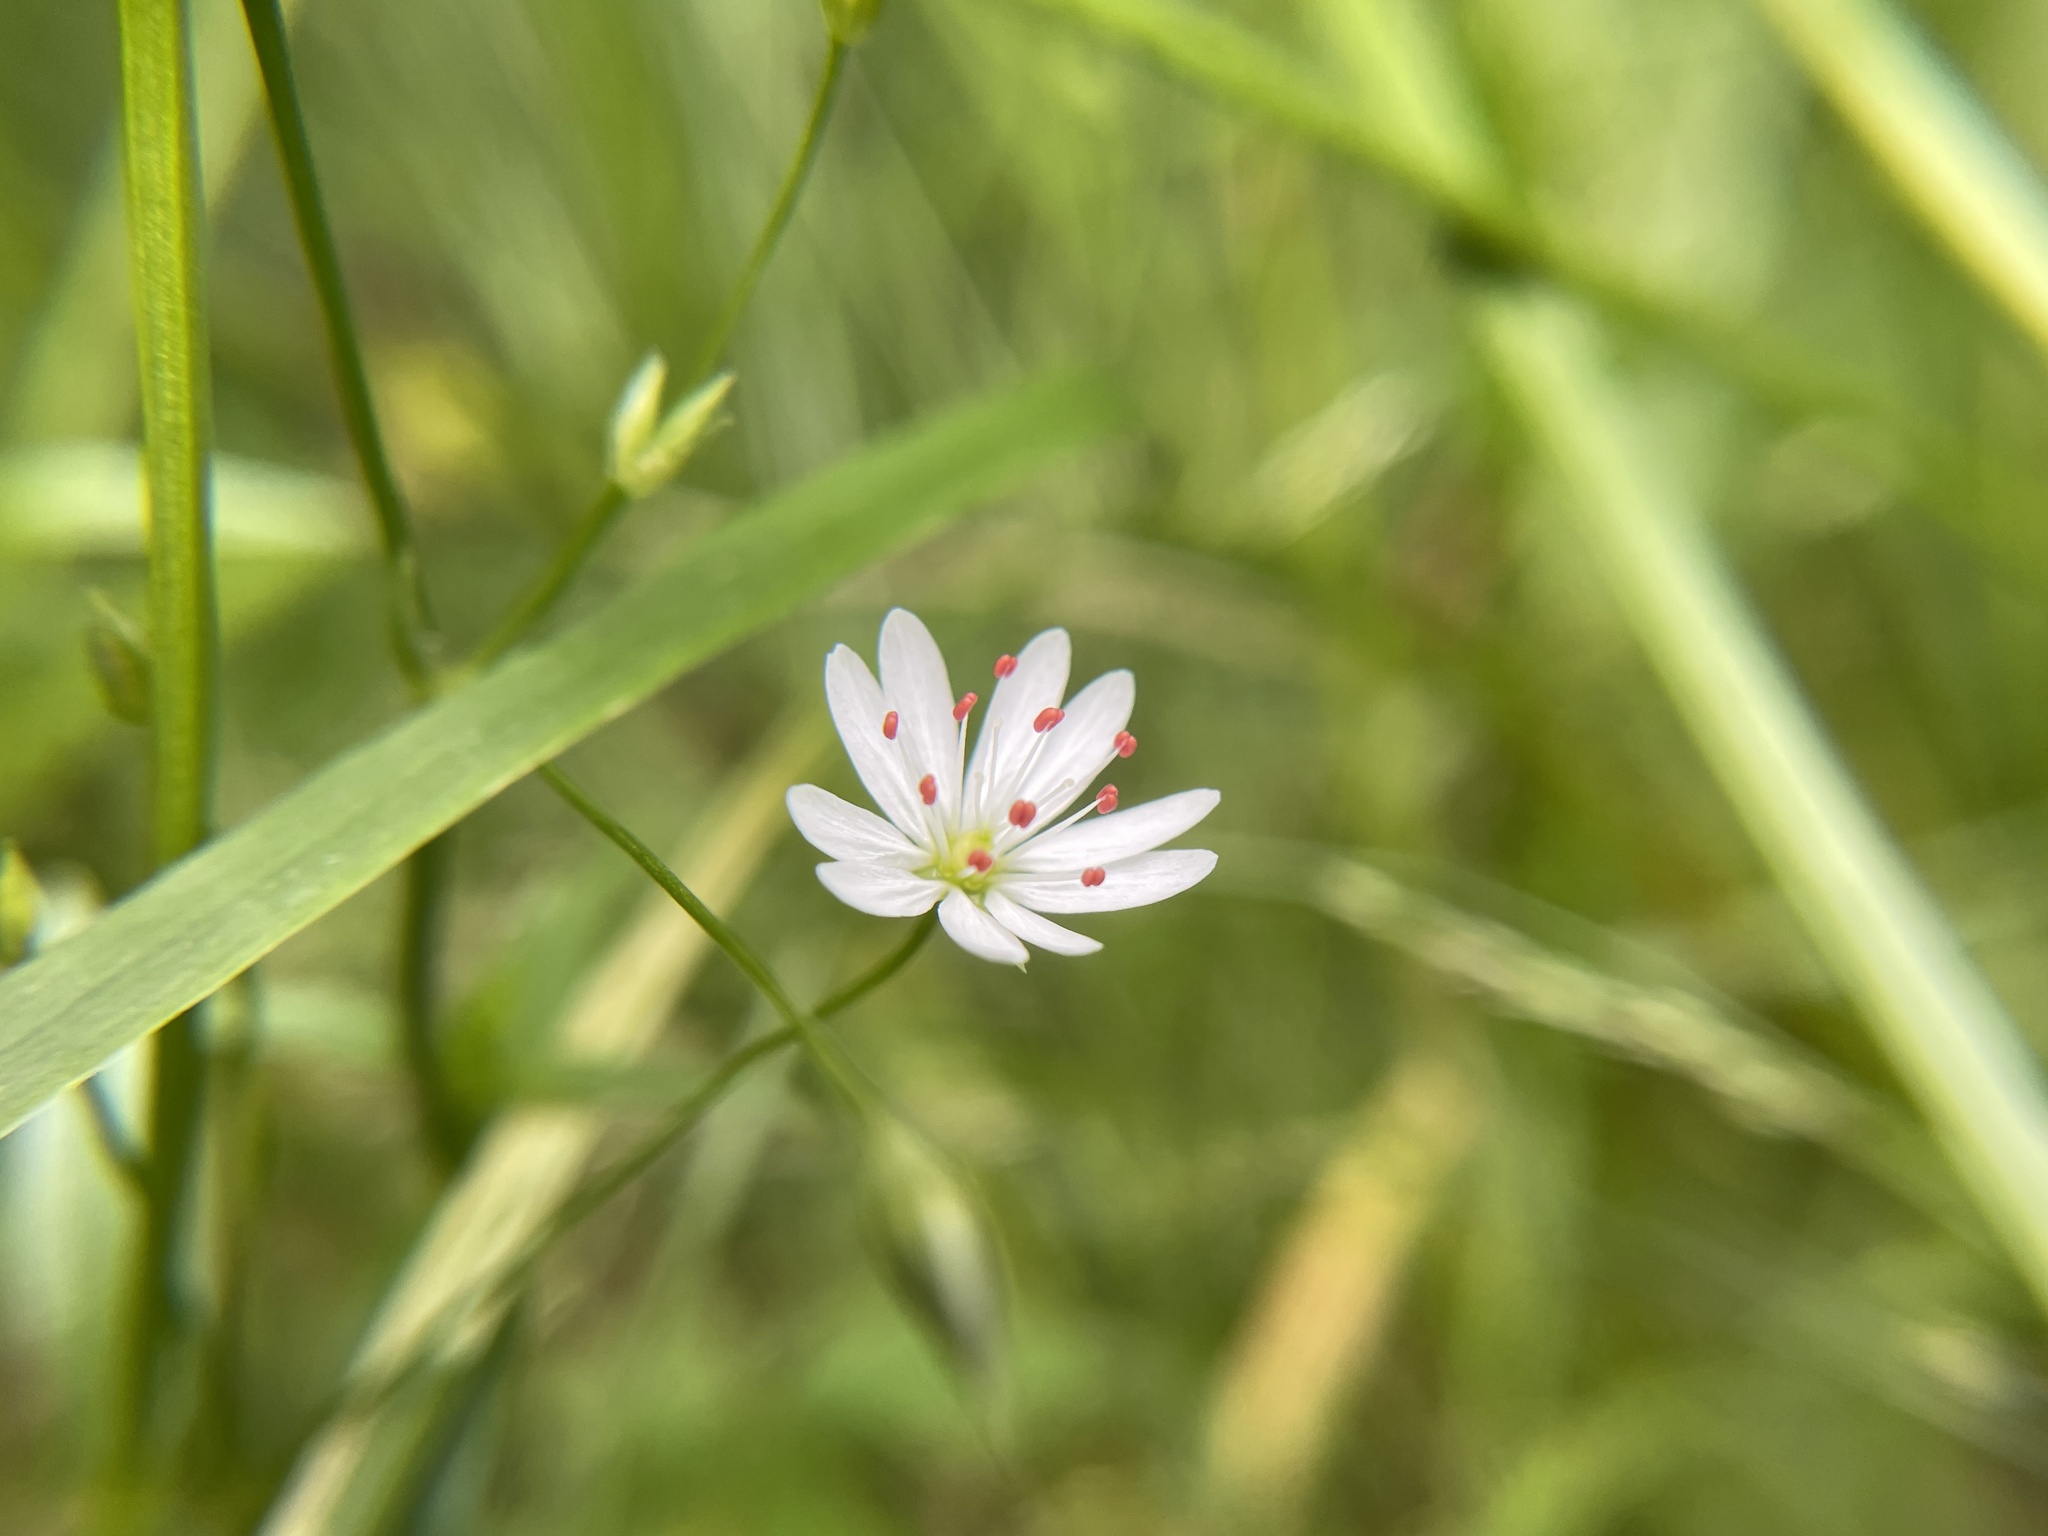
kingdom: Plantae
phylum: Tracheophyta
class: Magnoliopsida
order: Caryophyllales
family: Caryophyllaceae
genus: Stellaria
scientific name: Stellaria graminea
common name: Grass-like starwort
